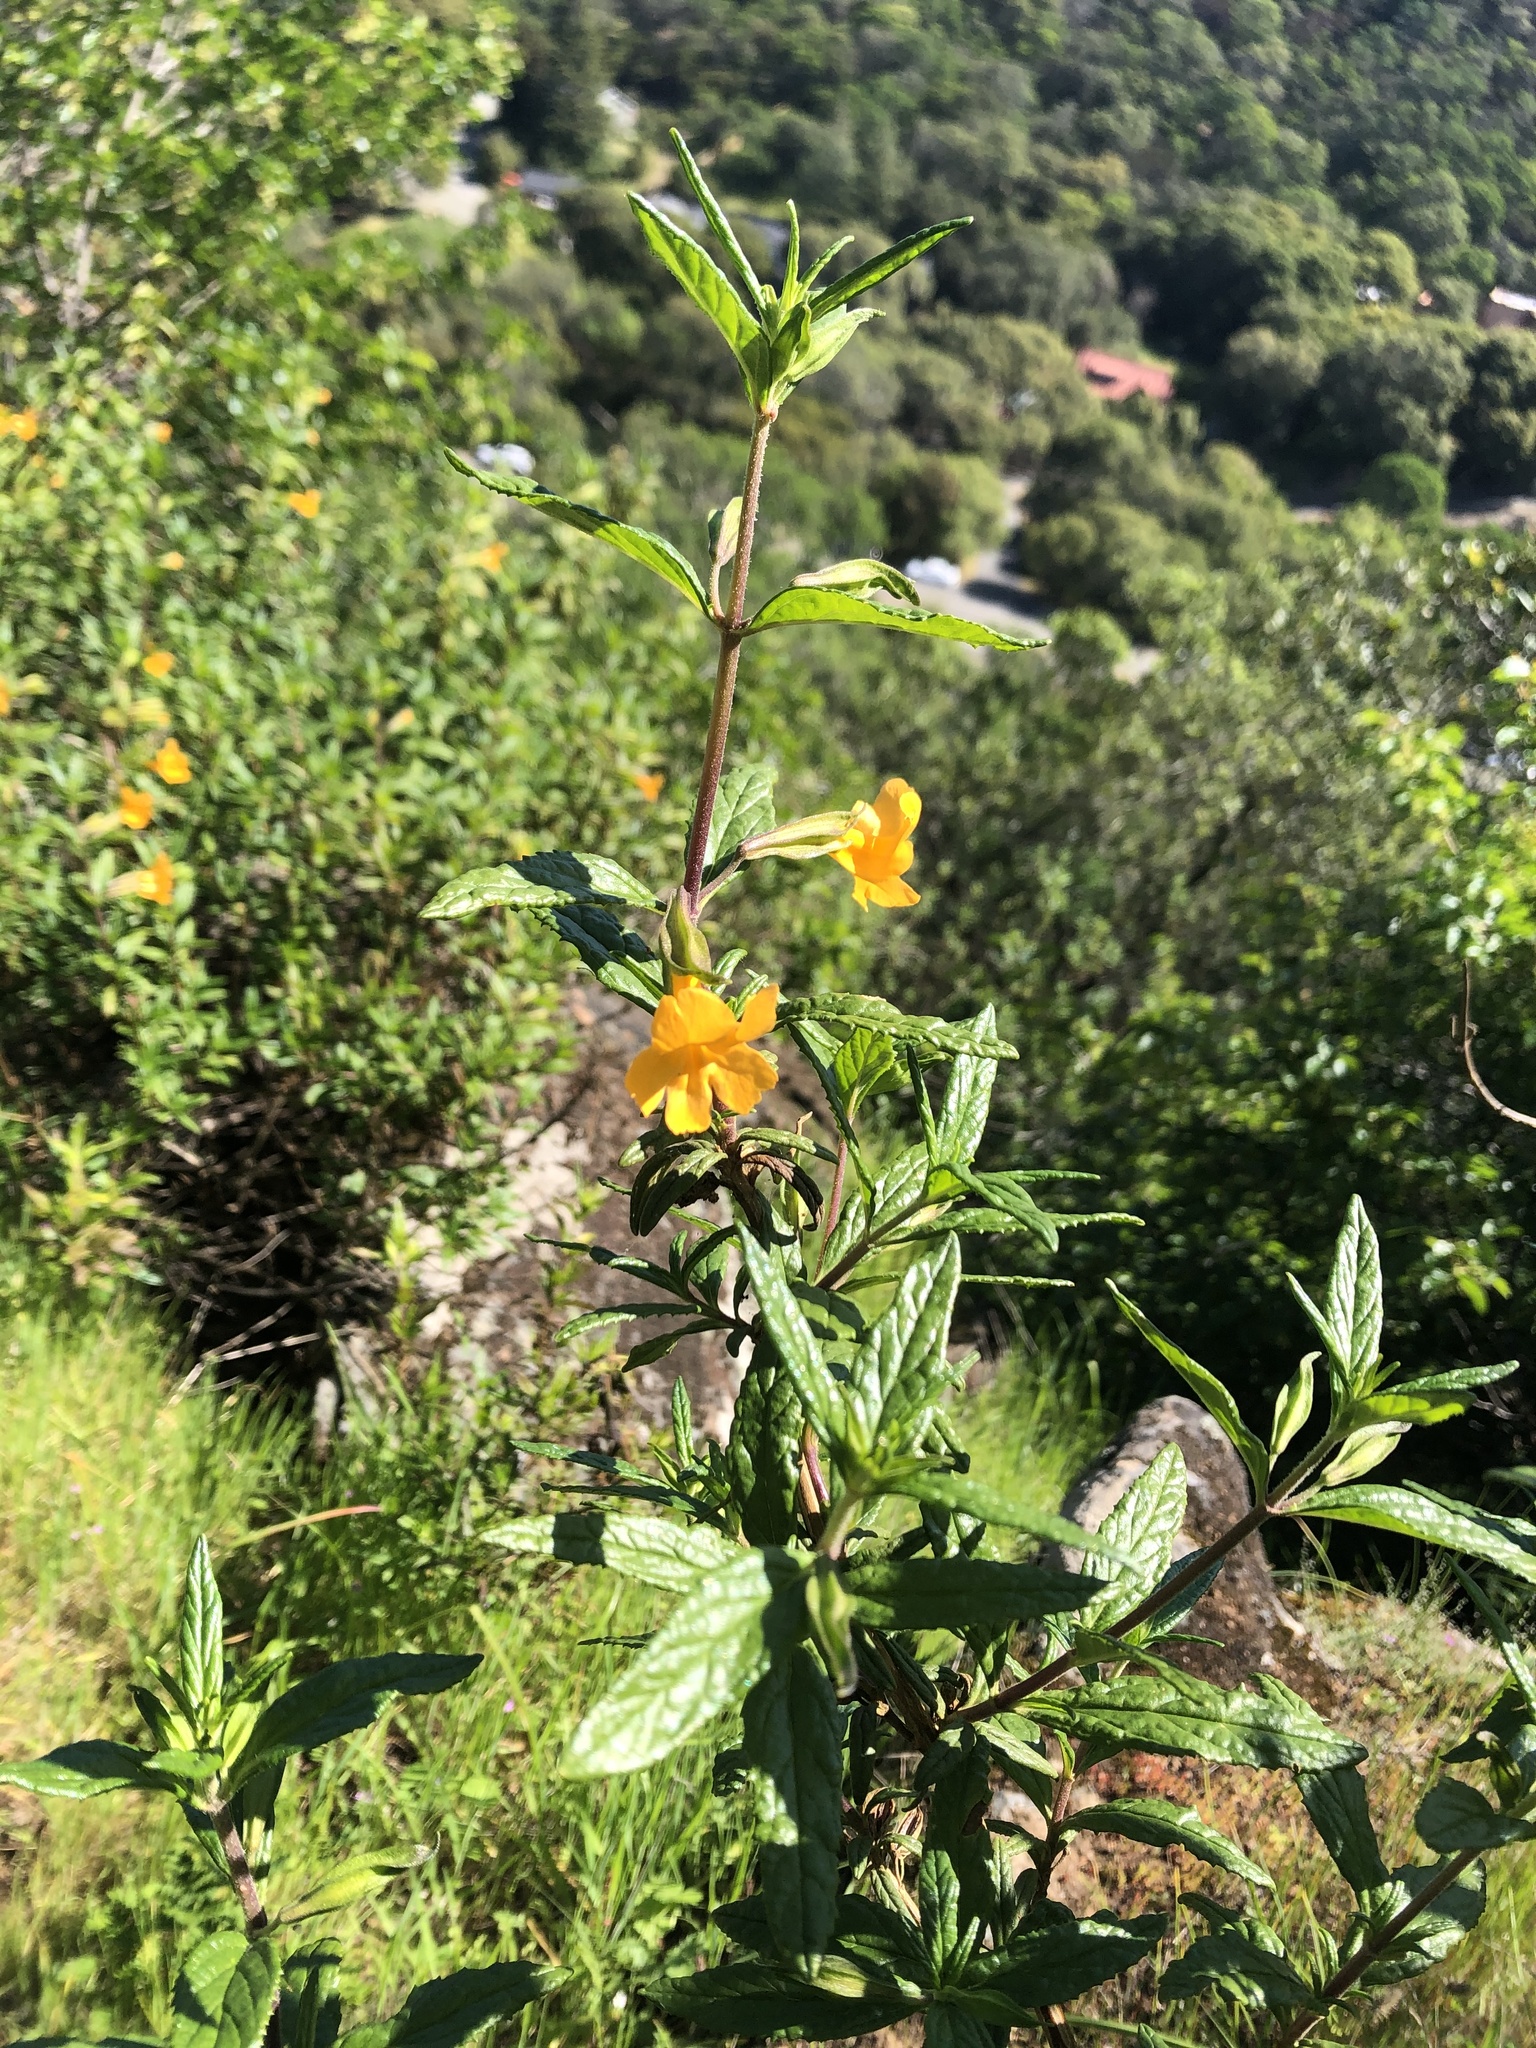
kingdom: Plantae
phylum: Tracheophyta
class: Magnoliopsida
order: Lamiales
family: Phrymaceae
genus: Diplacus
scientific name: Diplacus aurantiacus
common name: Bush monkey-flower
